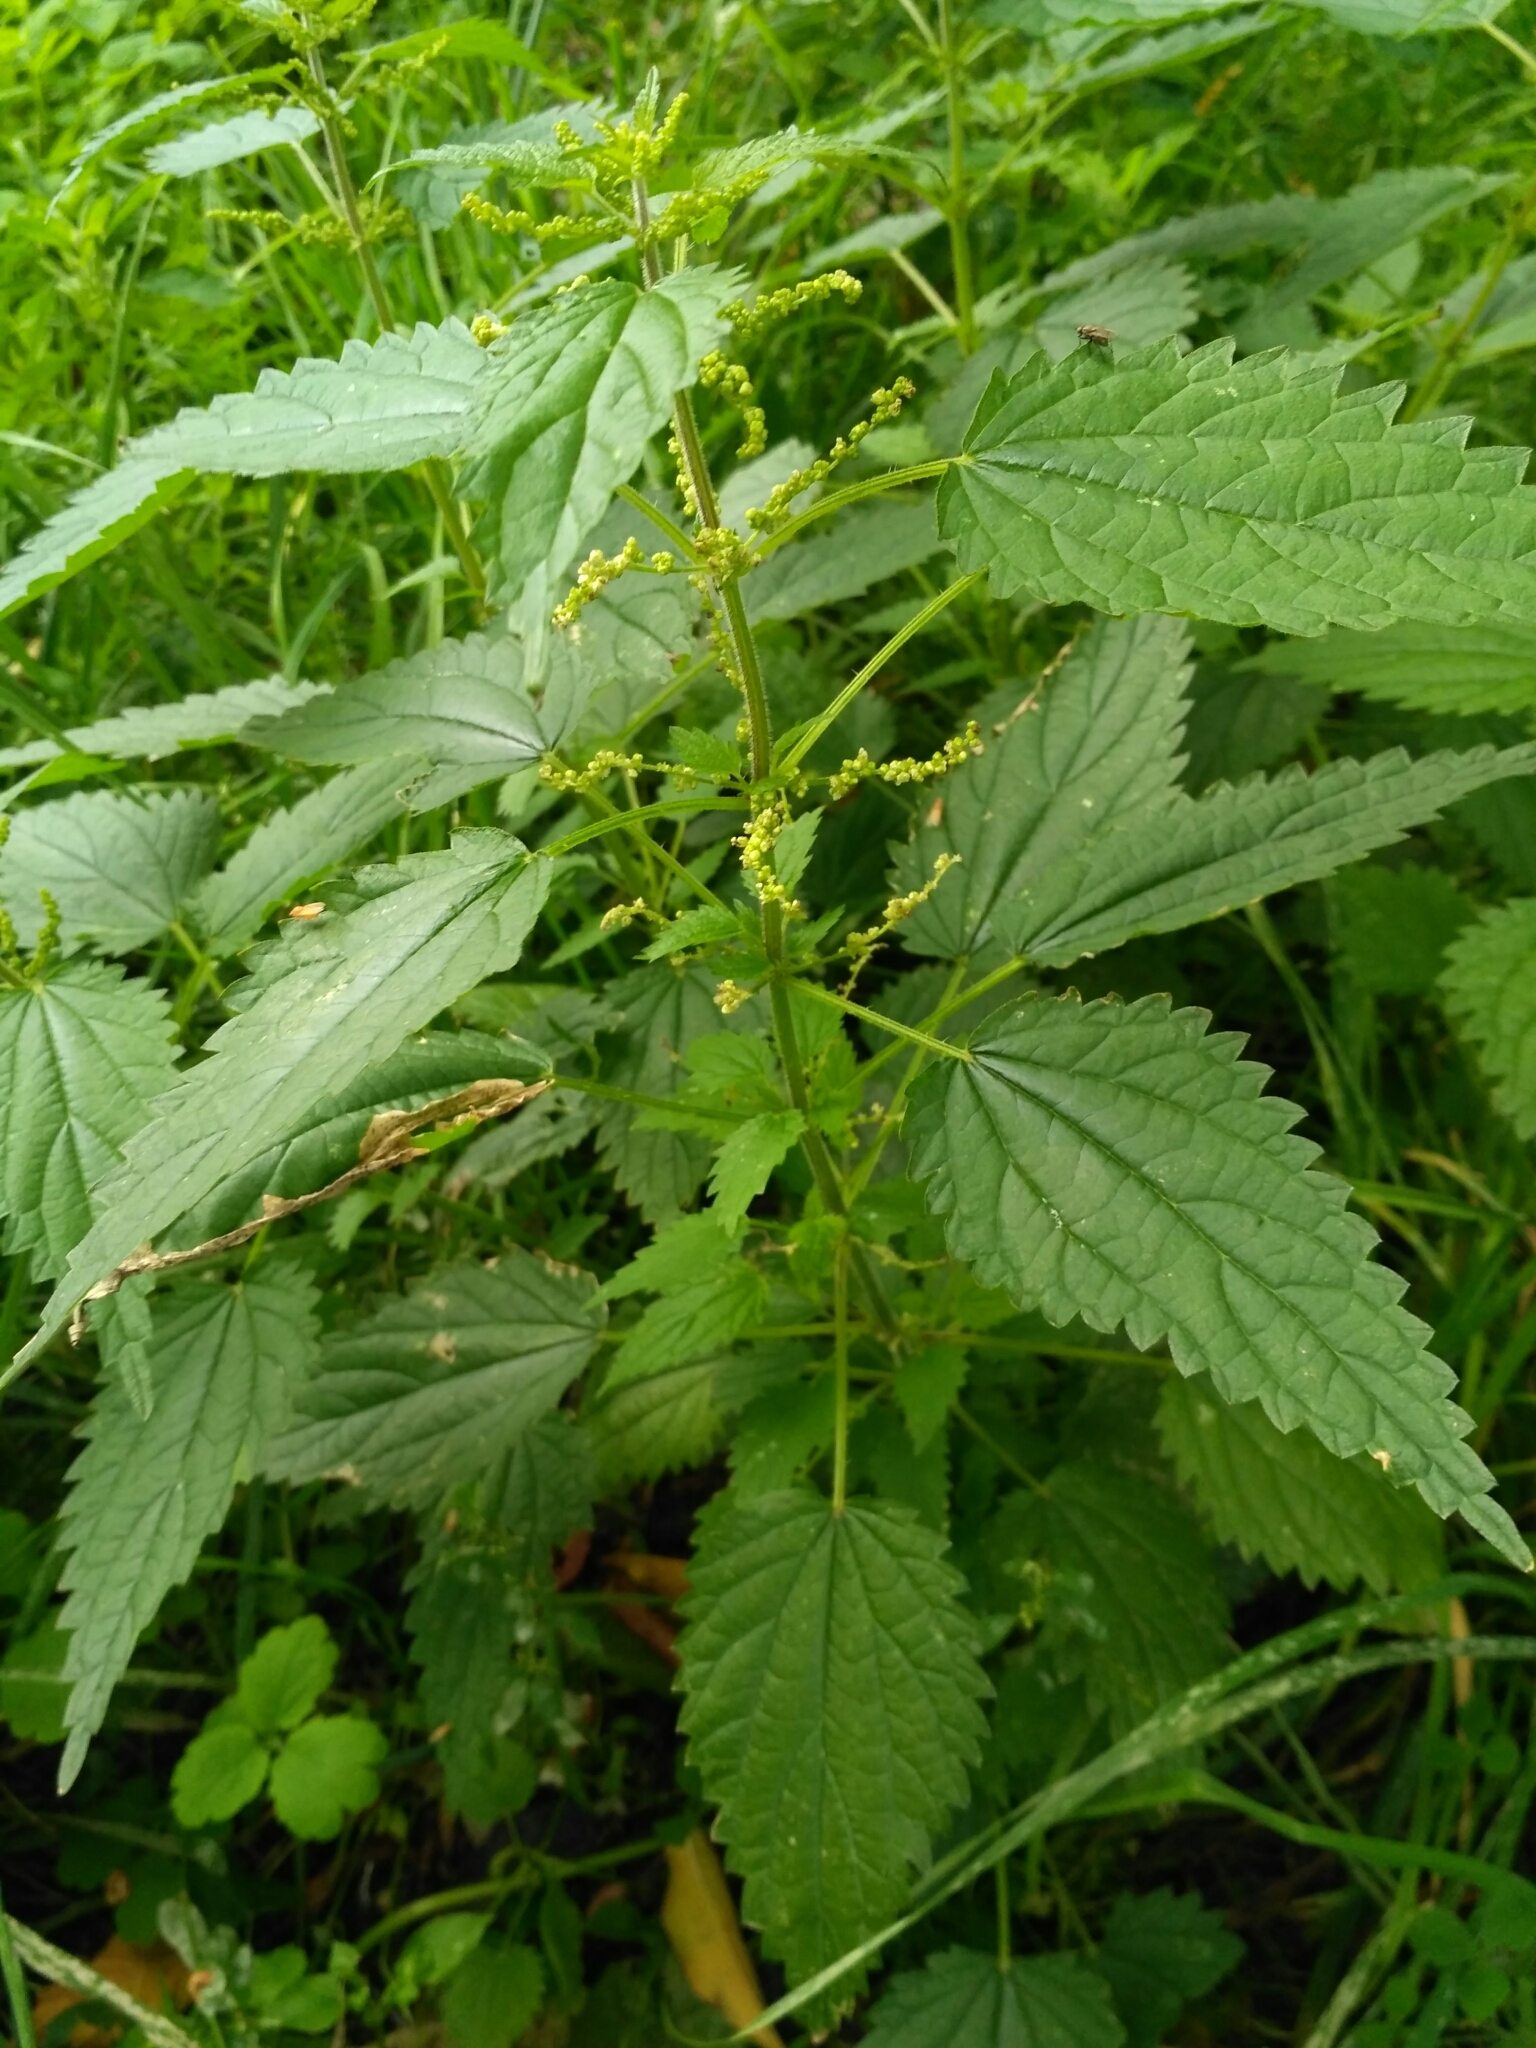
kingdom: Plantae
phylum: Tracheophyta
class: Magnoliopsida
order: Rosales
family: Urticaceae
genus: Urtica
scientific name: Urtica dioica
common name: Common nettle
